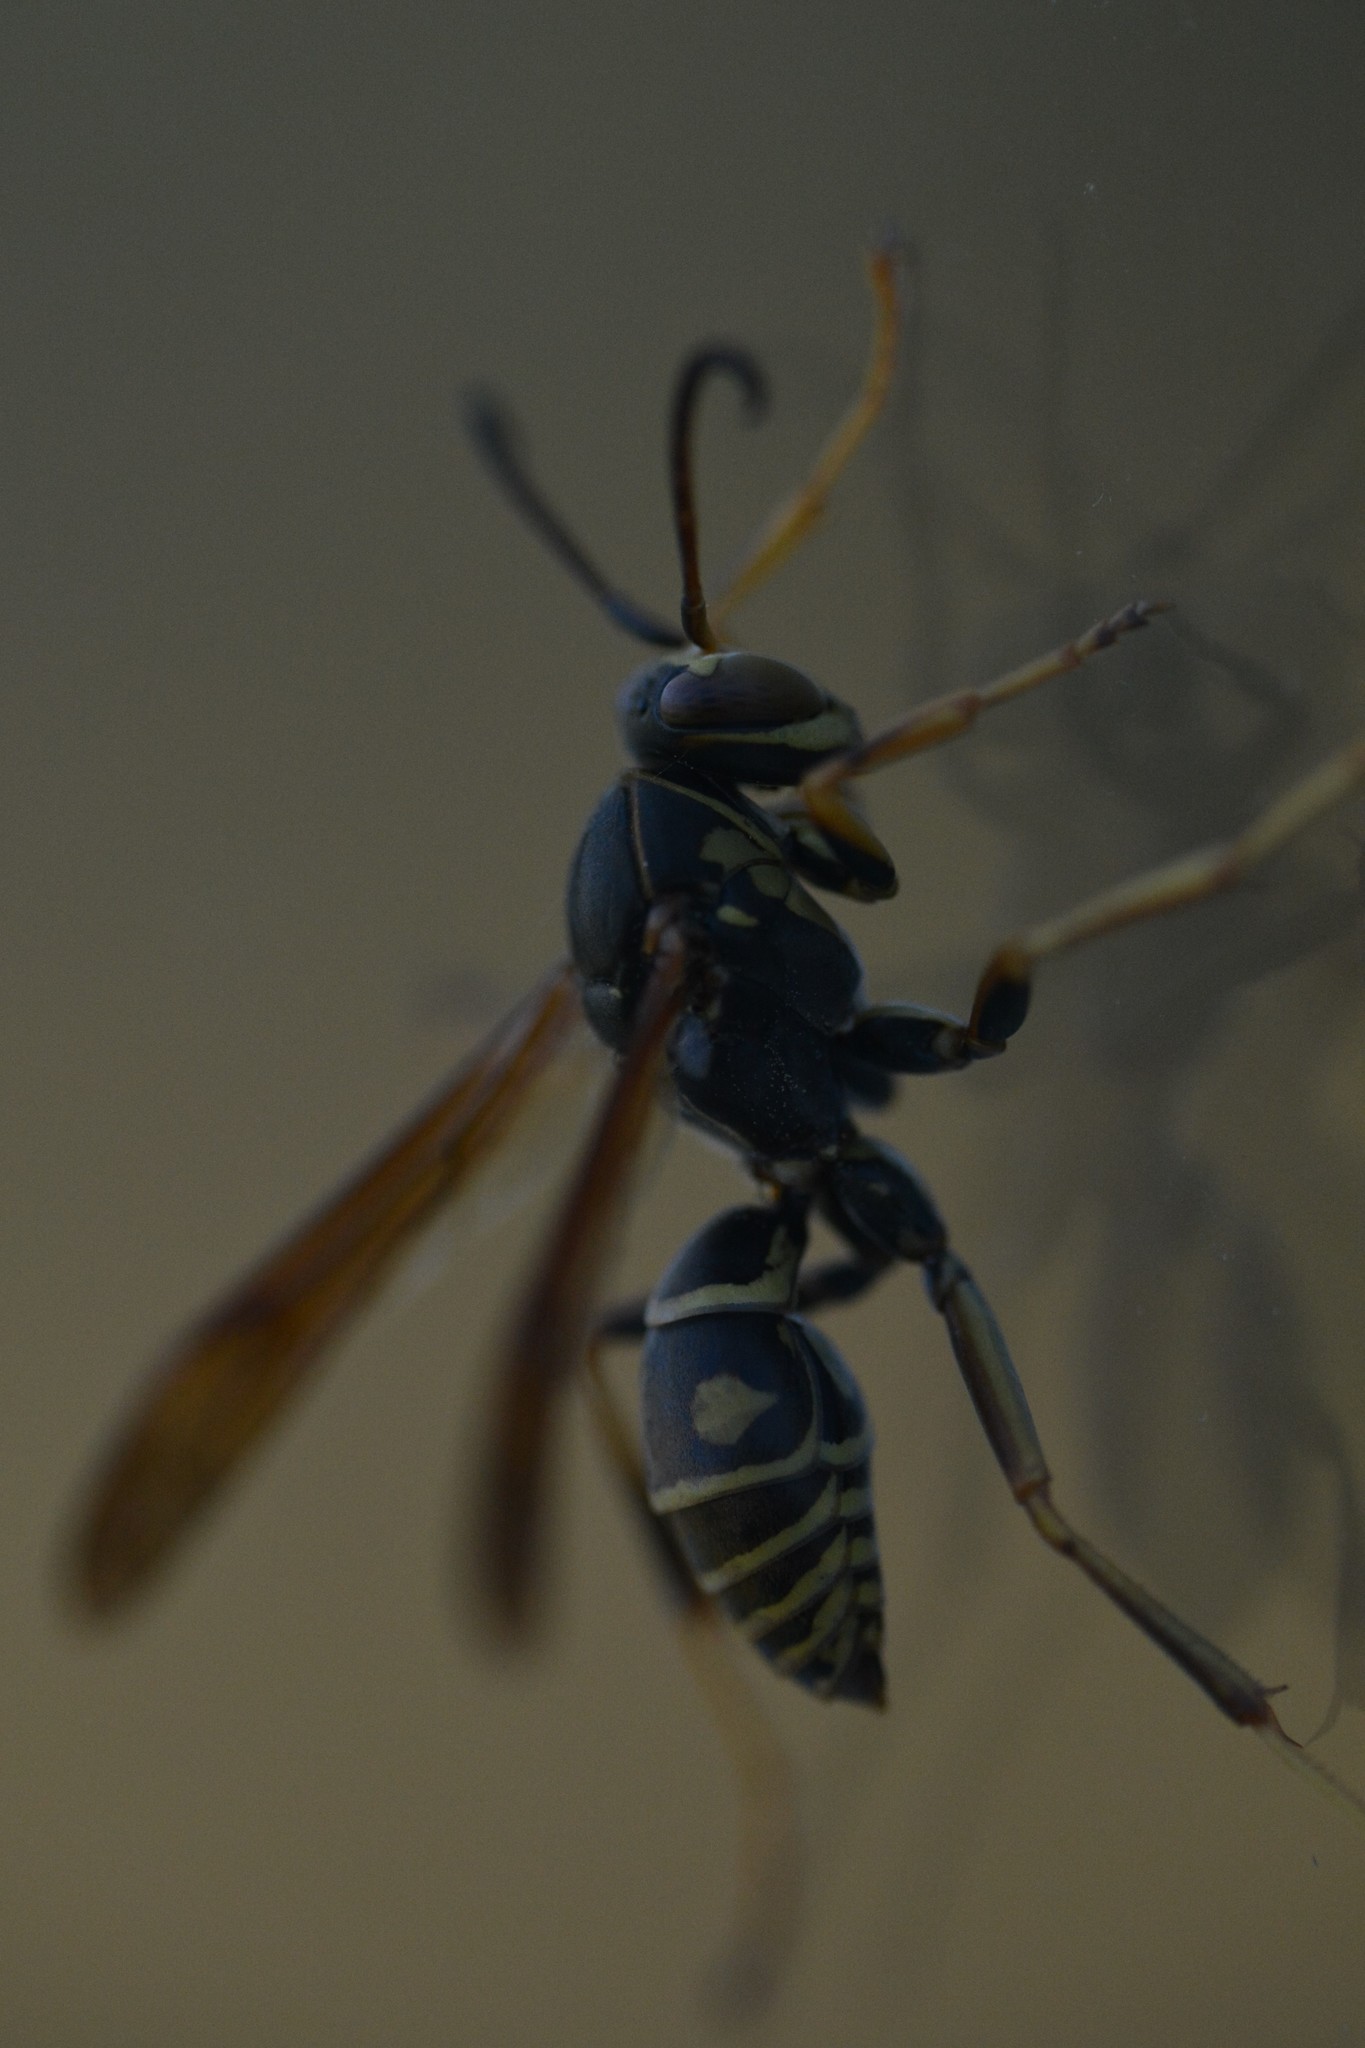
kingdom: Animalia
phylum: Arthropoda
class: Insecta
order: Hymenoptera
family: Eumenidae
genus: Polistes
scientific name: Polistes fuscatus
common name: Dark paper wasp
